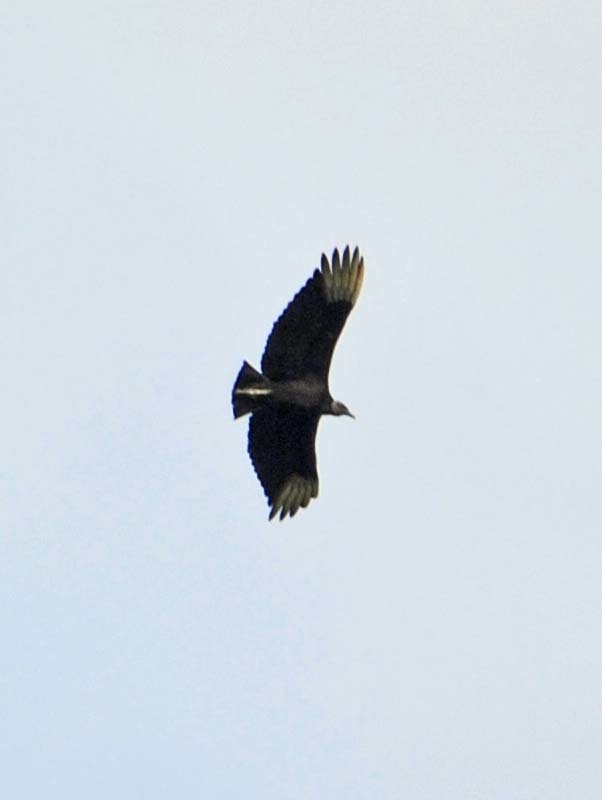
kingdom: Animalia
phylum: Chordata
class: Aves
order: Accipitriformes
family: Cathartidae
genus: Coragyps
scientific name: Coragyps atratus
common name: Black vulture
